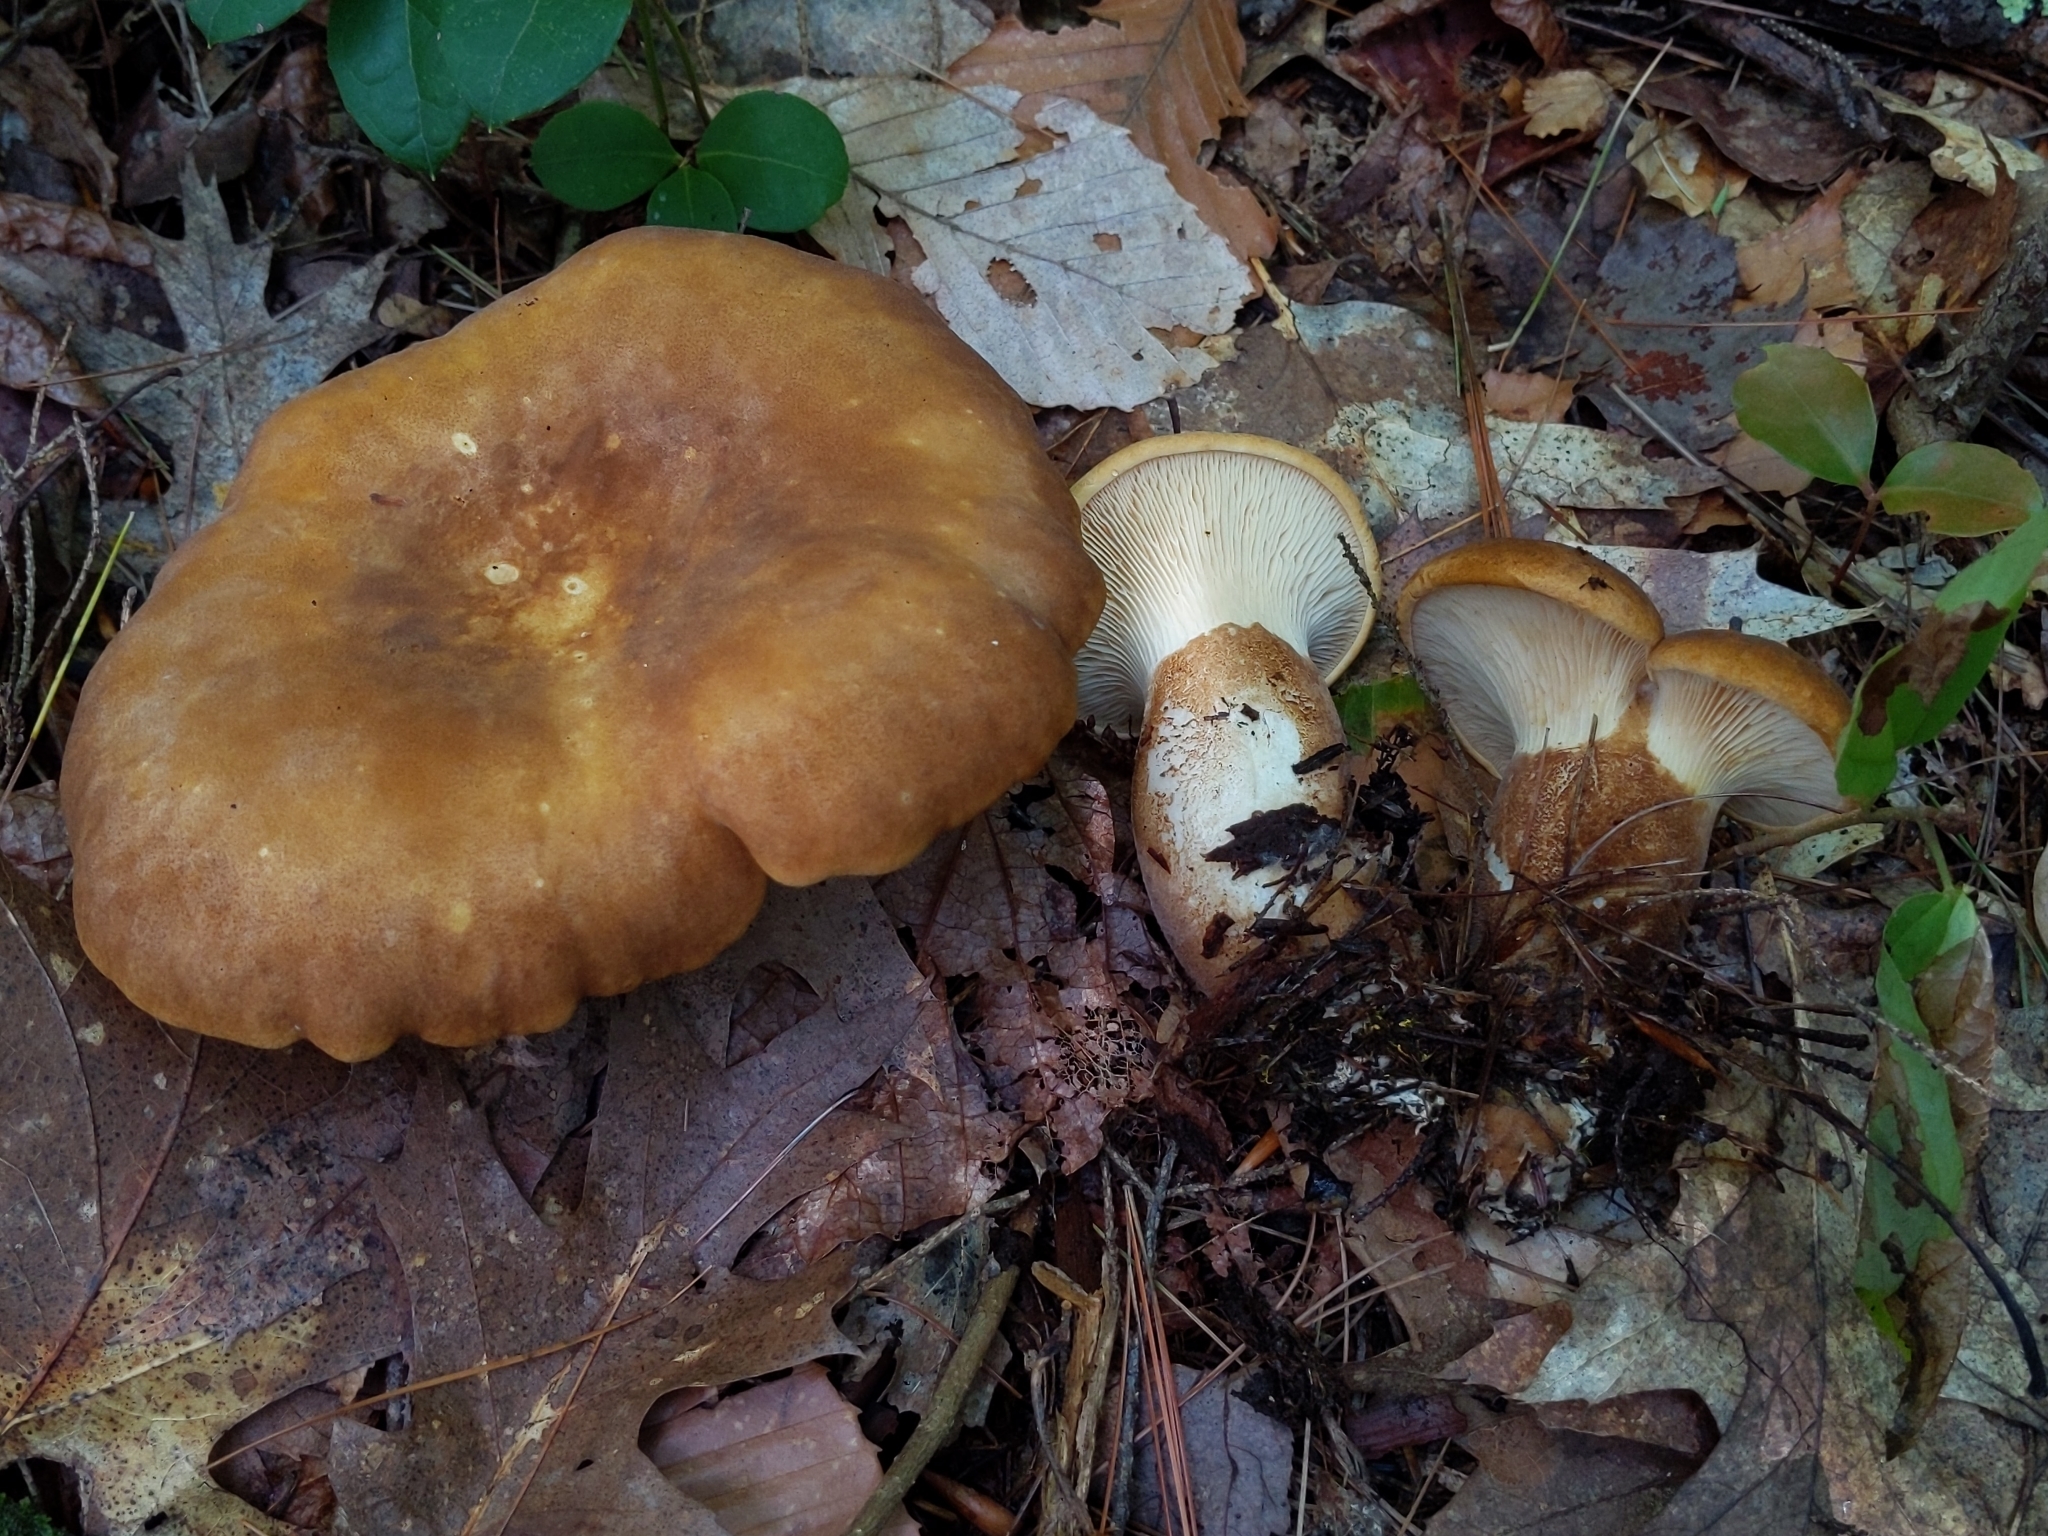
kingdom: Fungi
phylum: Basidiomycota
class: Agaricomycetes
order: Boletales
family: Tapinellaceae
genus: Tapinella
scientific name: Tapinella atrotomentosa
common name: Velvet rollrim
